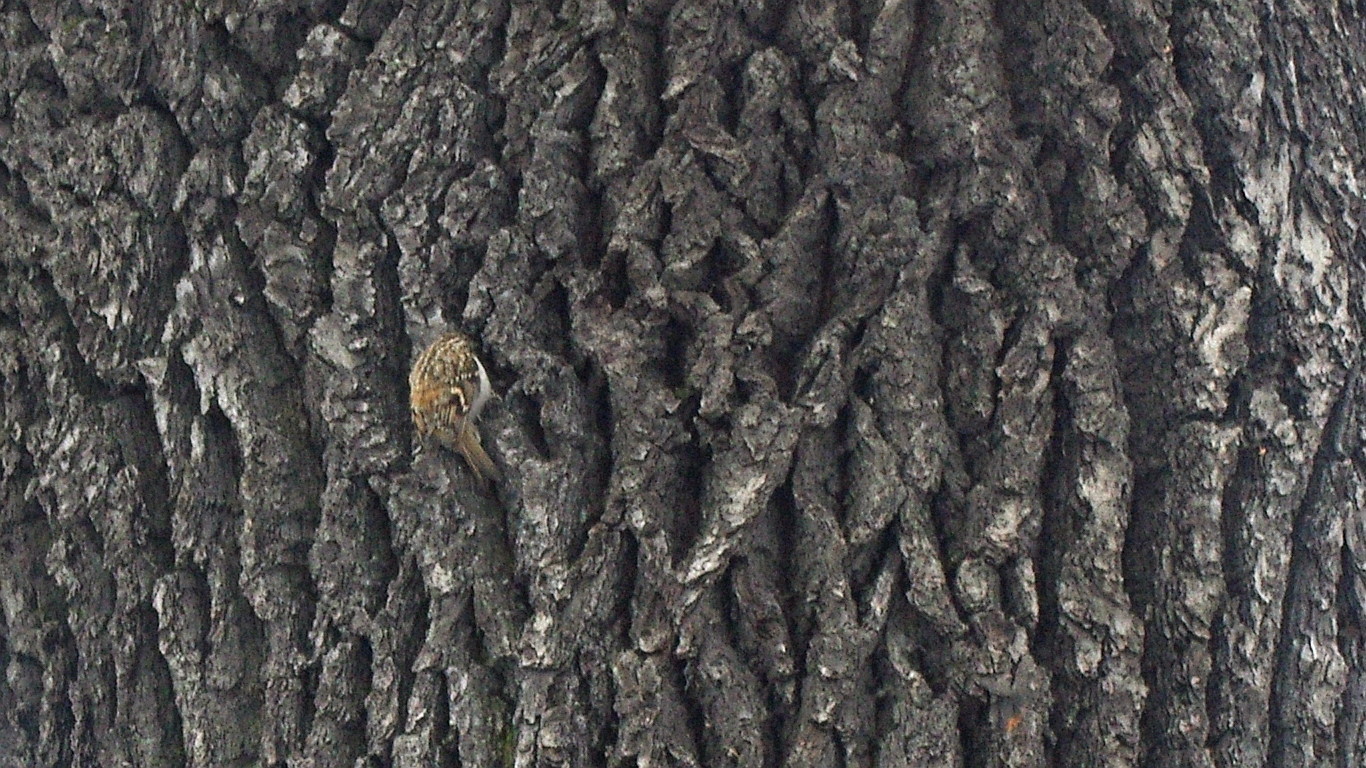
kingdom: Plantae
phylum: Tracheophyta
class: Magnoliopsida
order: Fagales
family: Fagaceae
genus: Quercus
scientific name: Quercus robur
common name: Pedunculate oak
